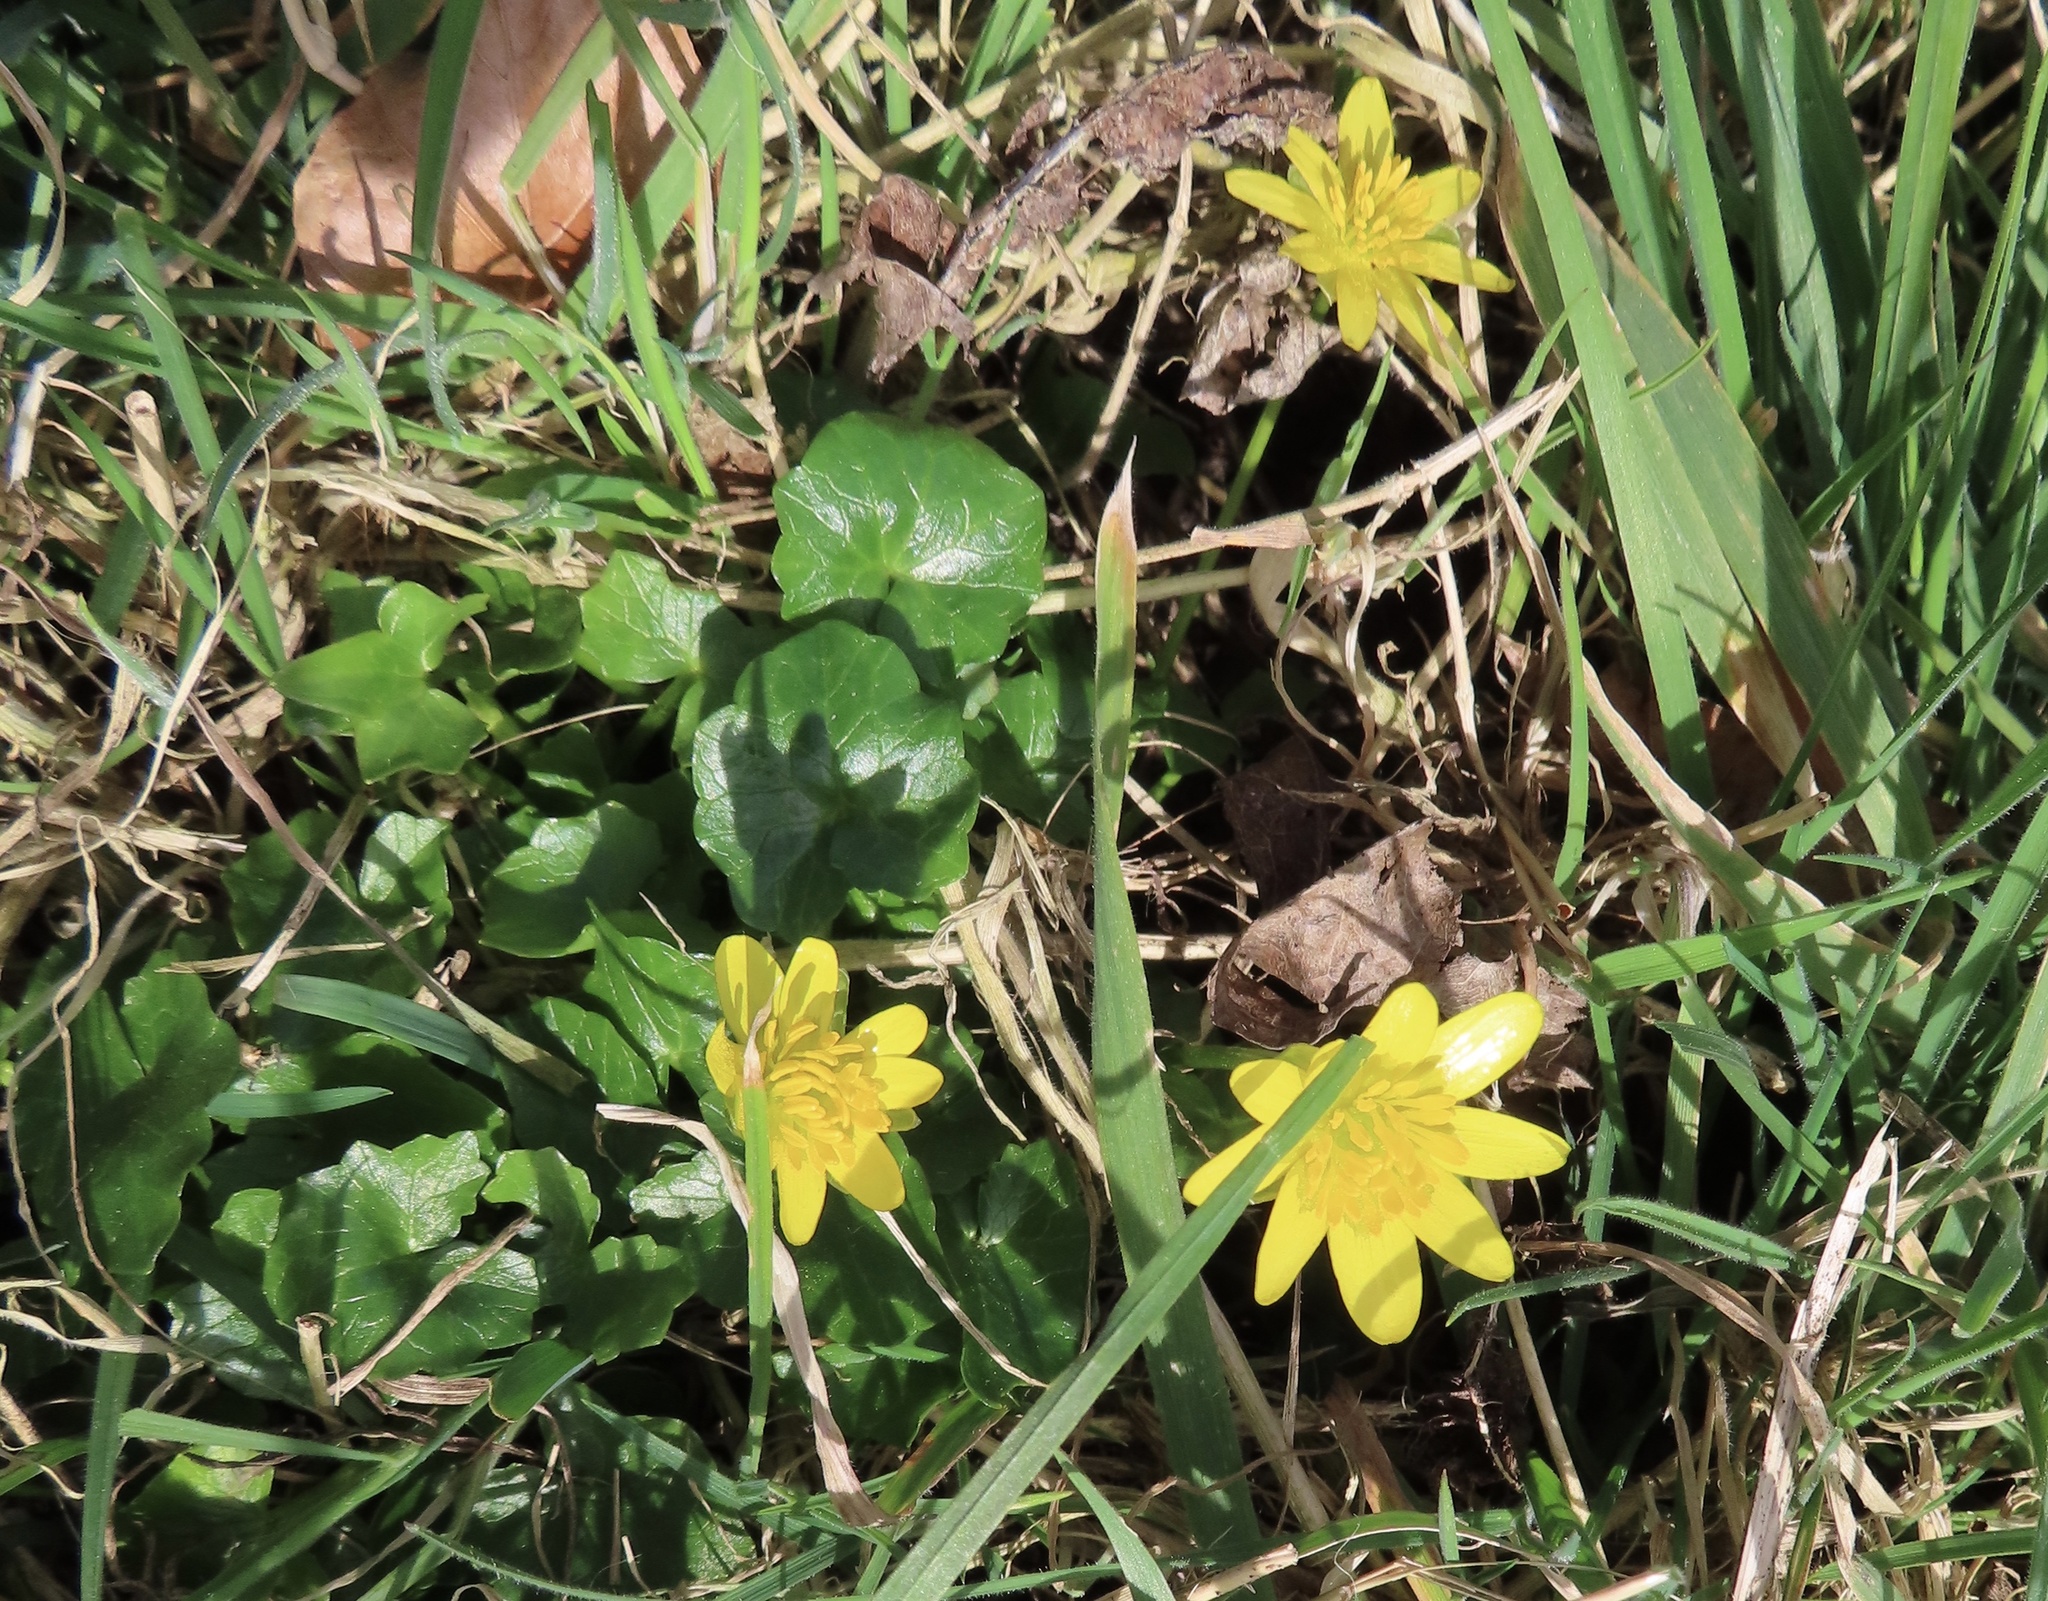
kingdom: Plantae
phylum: Tracheophyta
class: Magnoliopsida
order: Ranunculales
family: Ranunculaceae
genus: Ficaria
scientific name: Ficaria verna
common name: Lesser celandine
